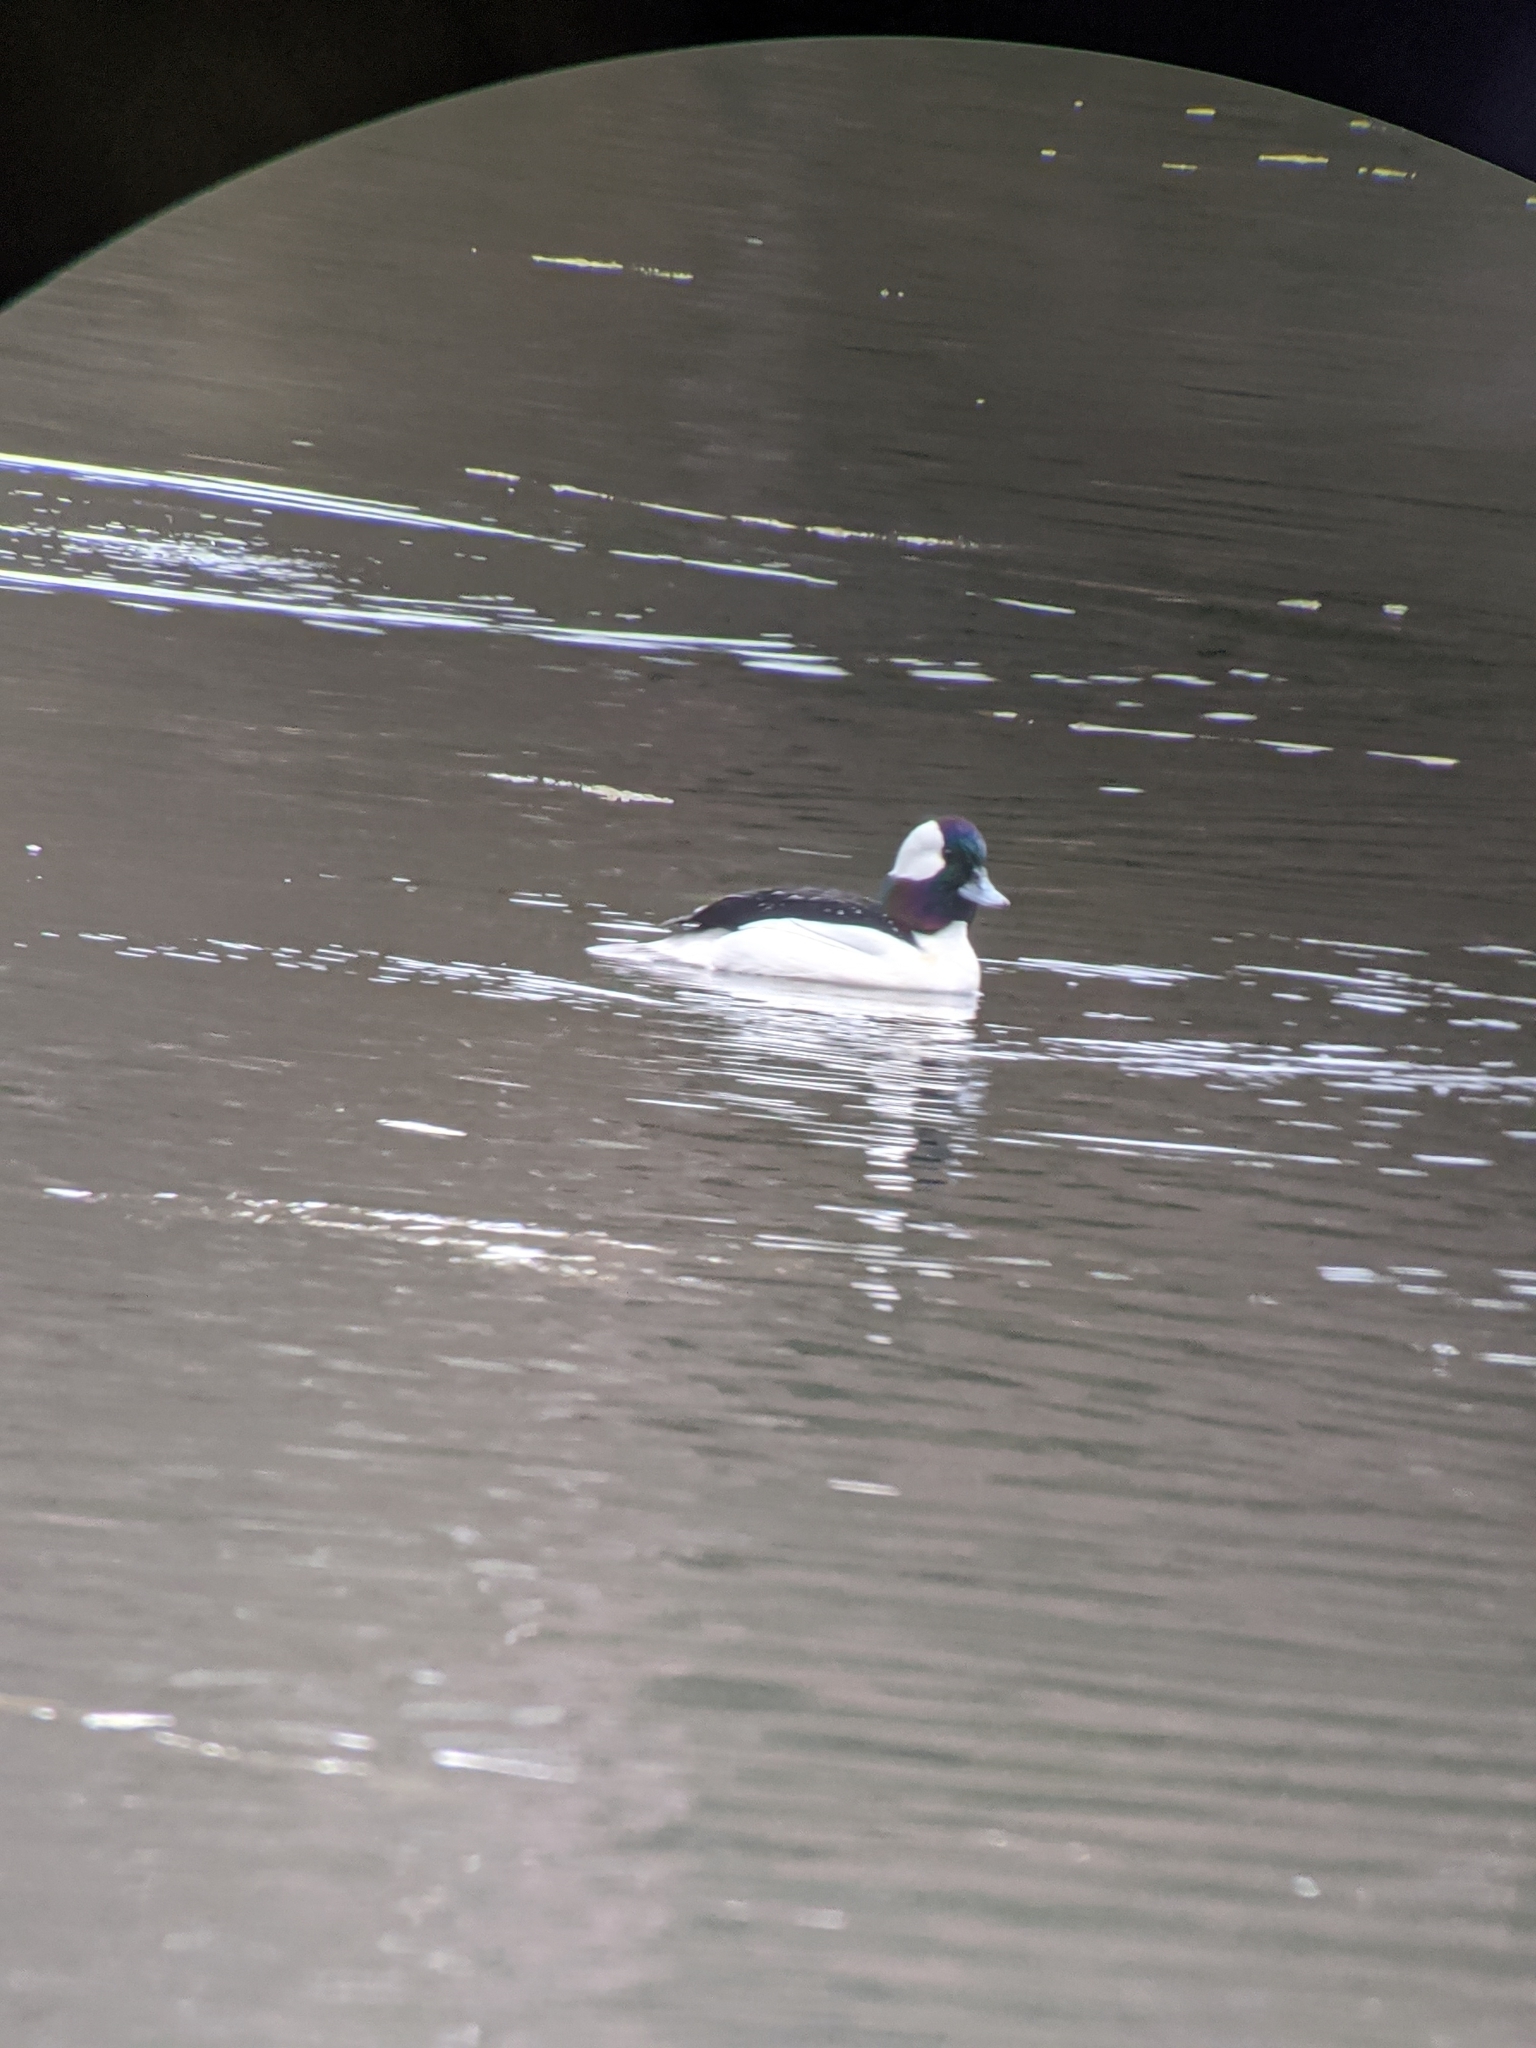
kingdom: Animalia
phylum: Chordata
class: Aves
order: Anseriformes
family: Anatidae
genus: Bucephala
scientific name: Bucephala albeola
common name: Bufflehead
